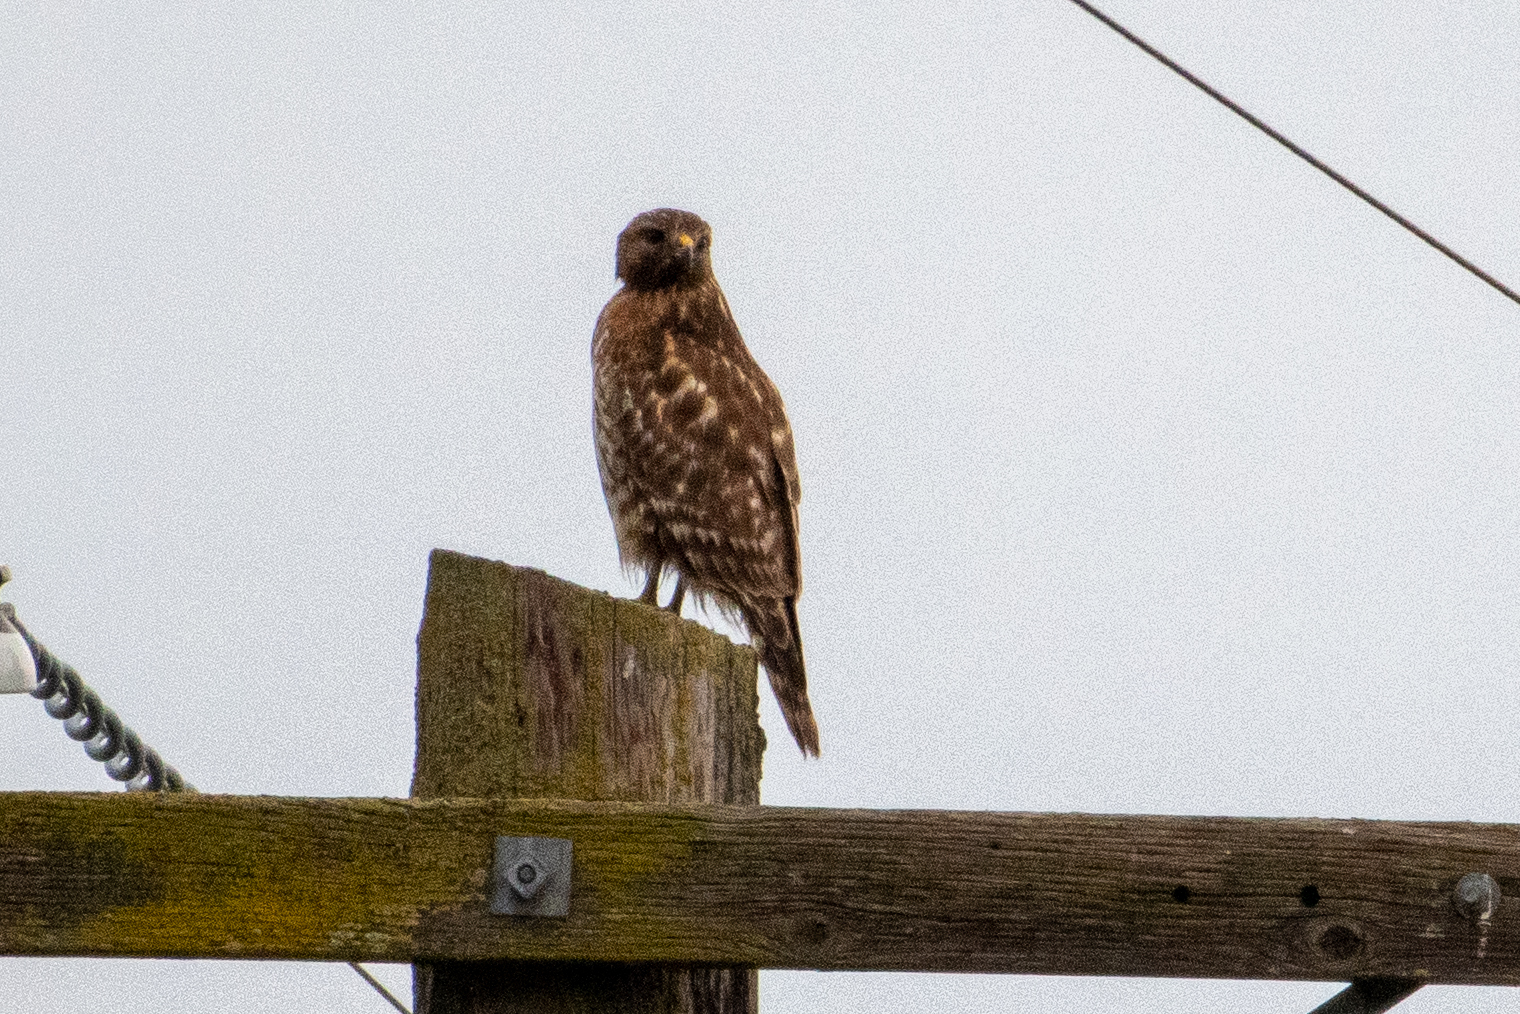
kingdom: Animalia
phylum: Chordata
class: Aves
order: Accipitriformes
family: Accipitridae
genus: Buteo
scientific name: Buteo lineatus
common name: Red-shouldered hawk
